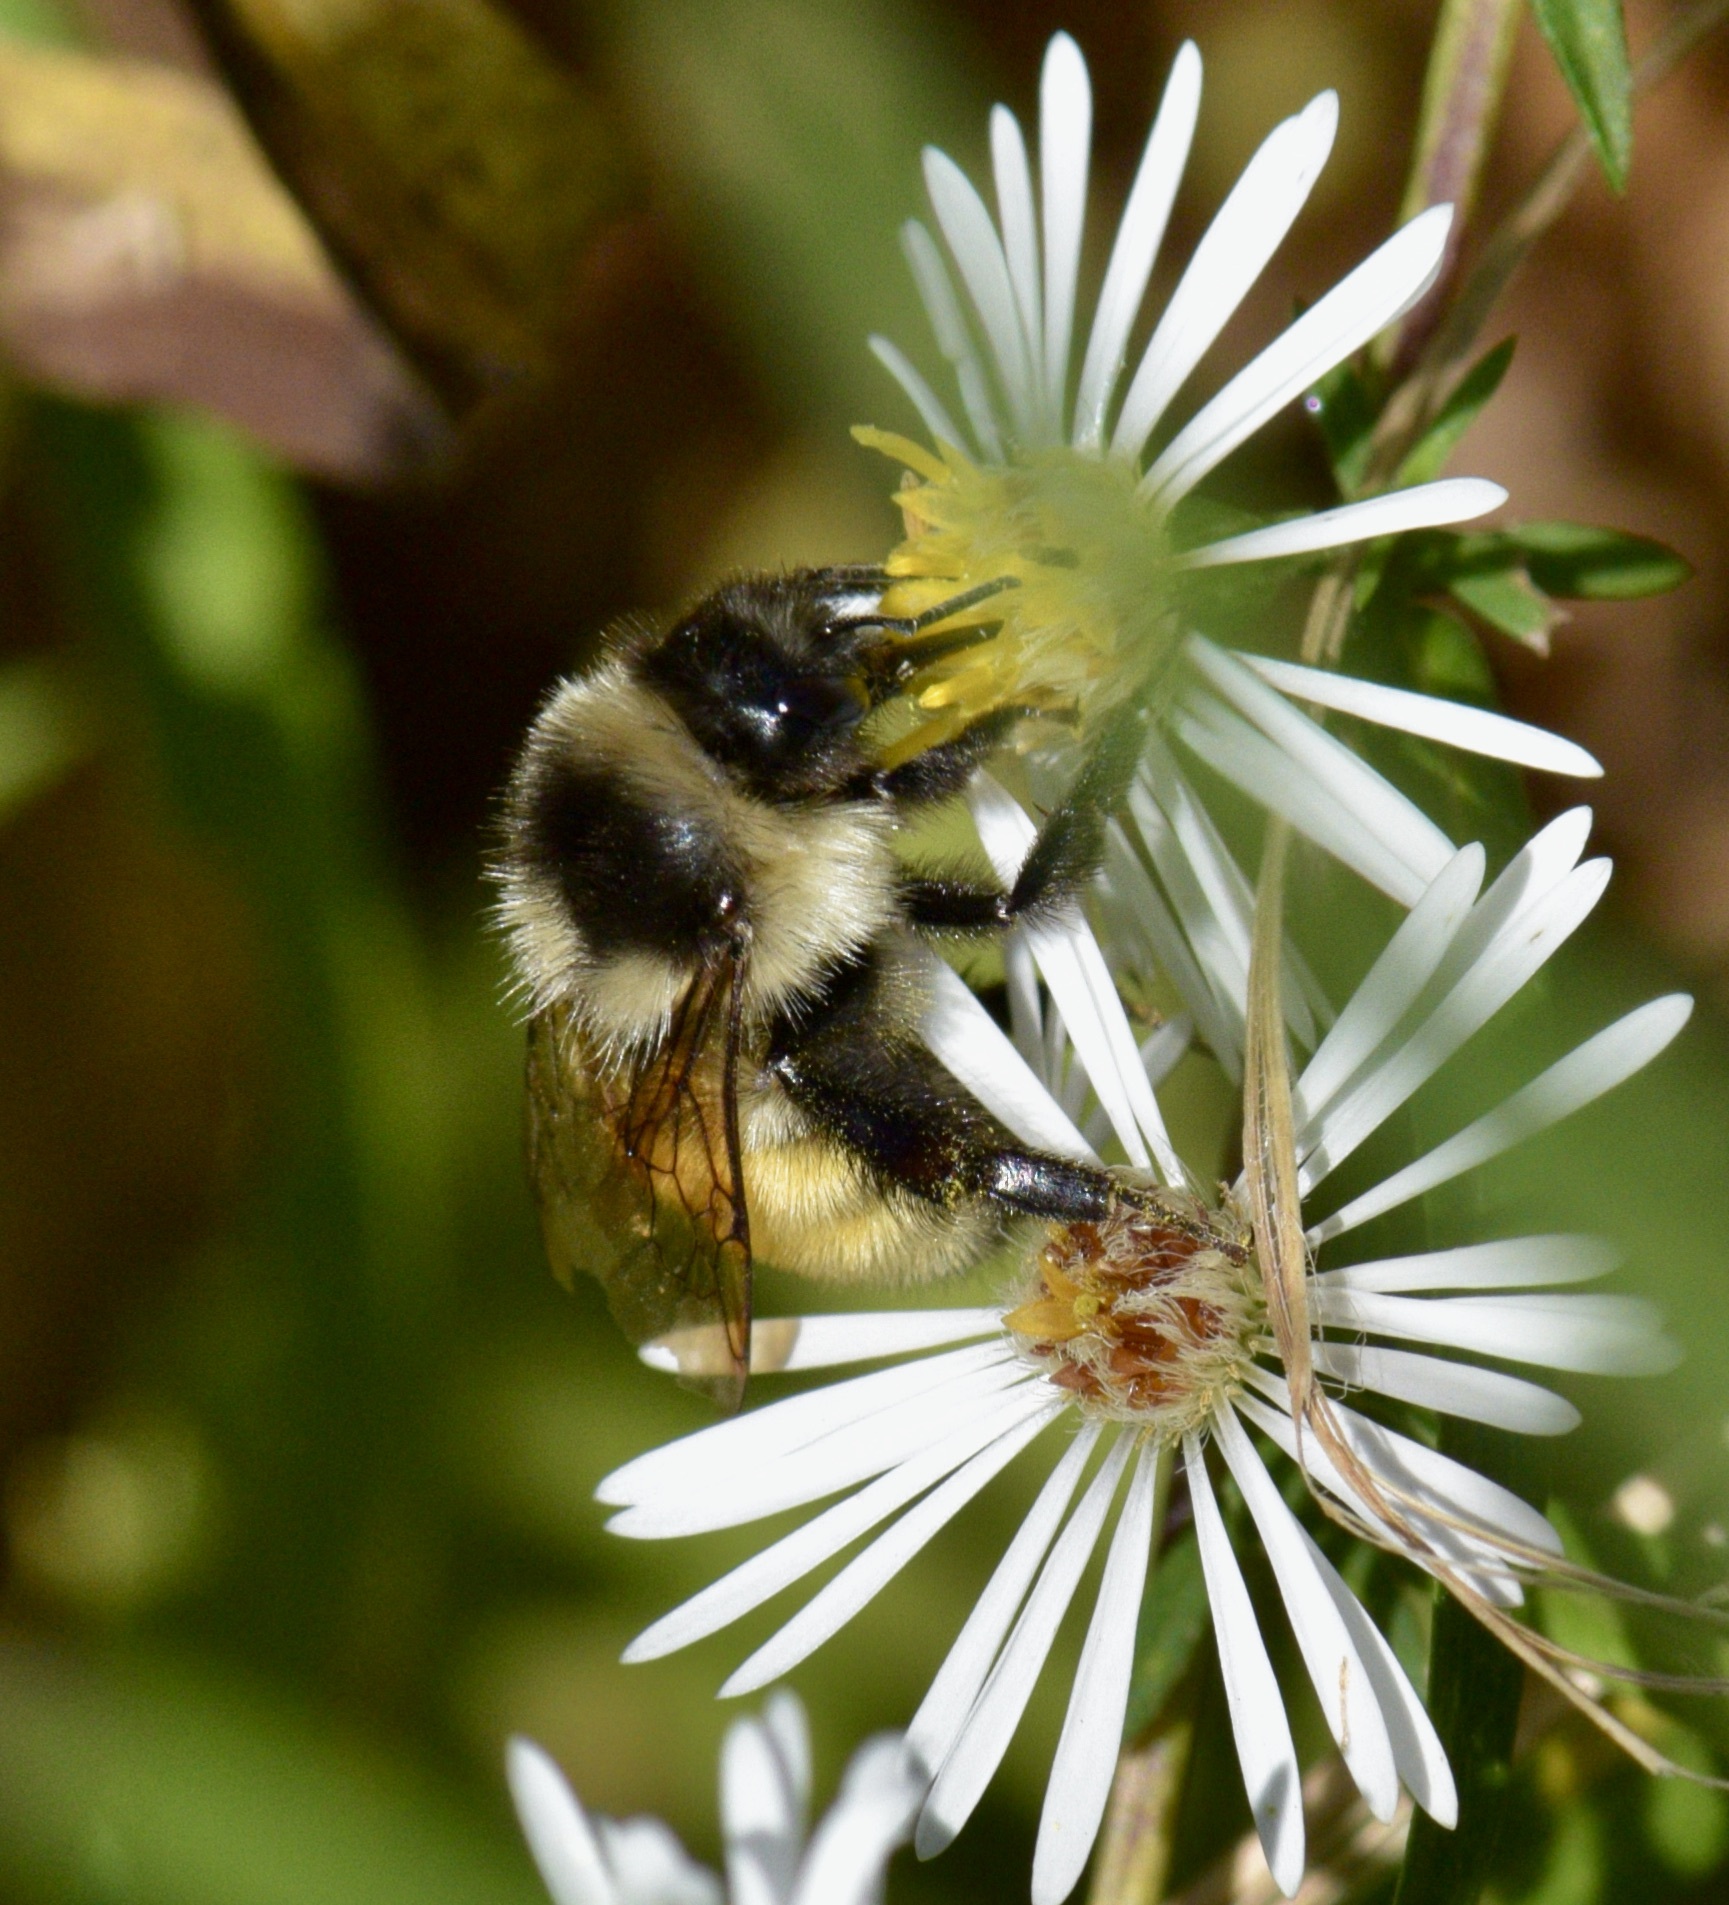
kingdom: Animalia
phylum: Arthropoda
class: Insecta
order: Hymenoptera
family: Apidae
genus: Bombus
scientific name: Bombus ternarius
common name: Tri-colored bumble bee
